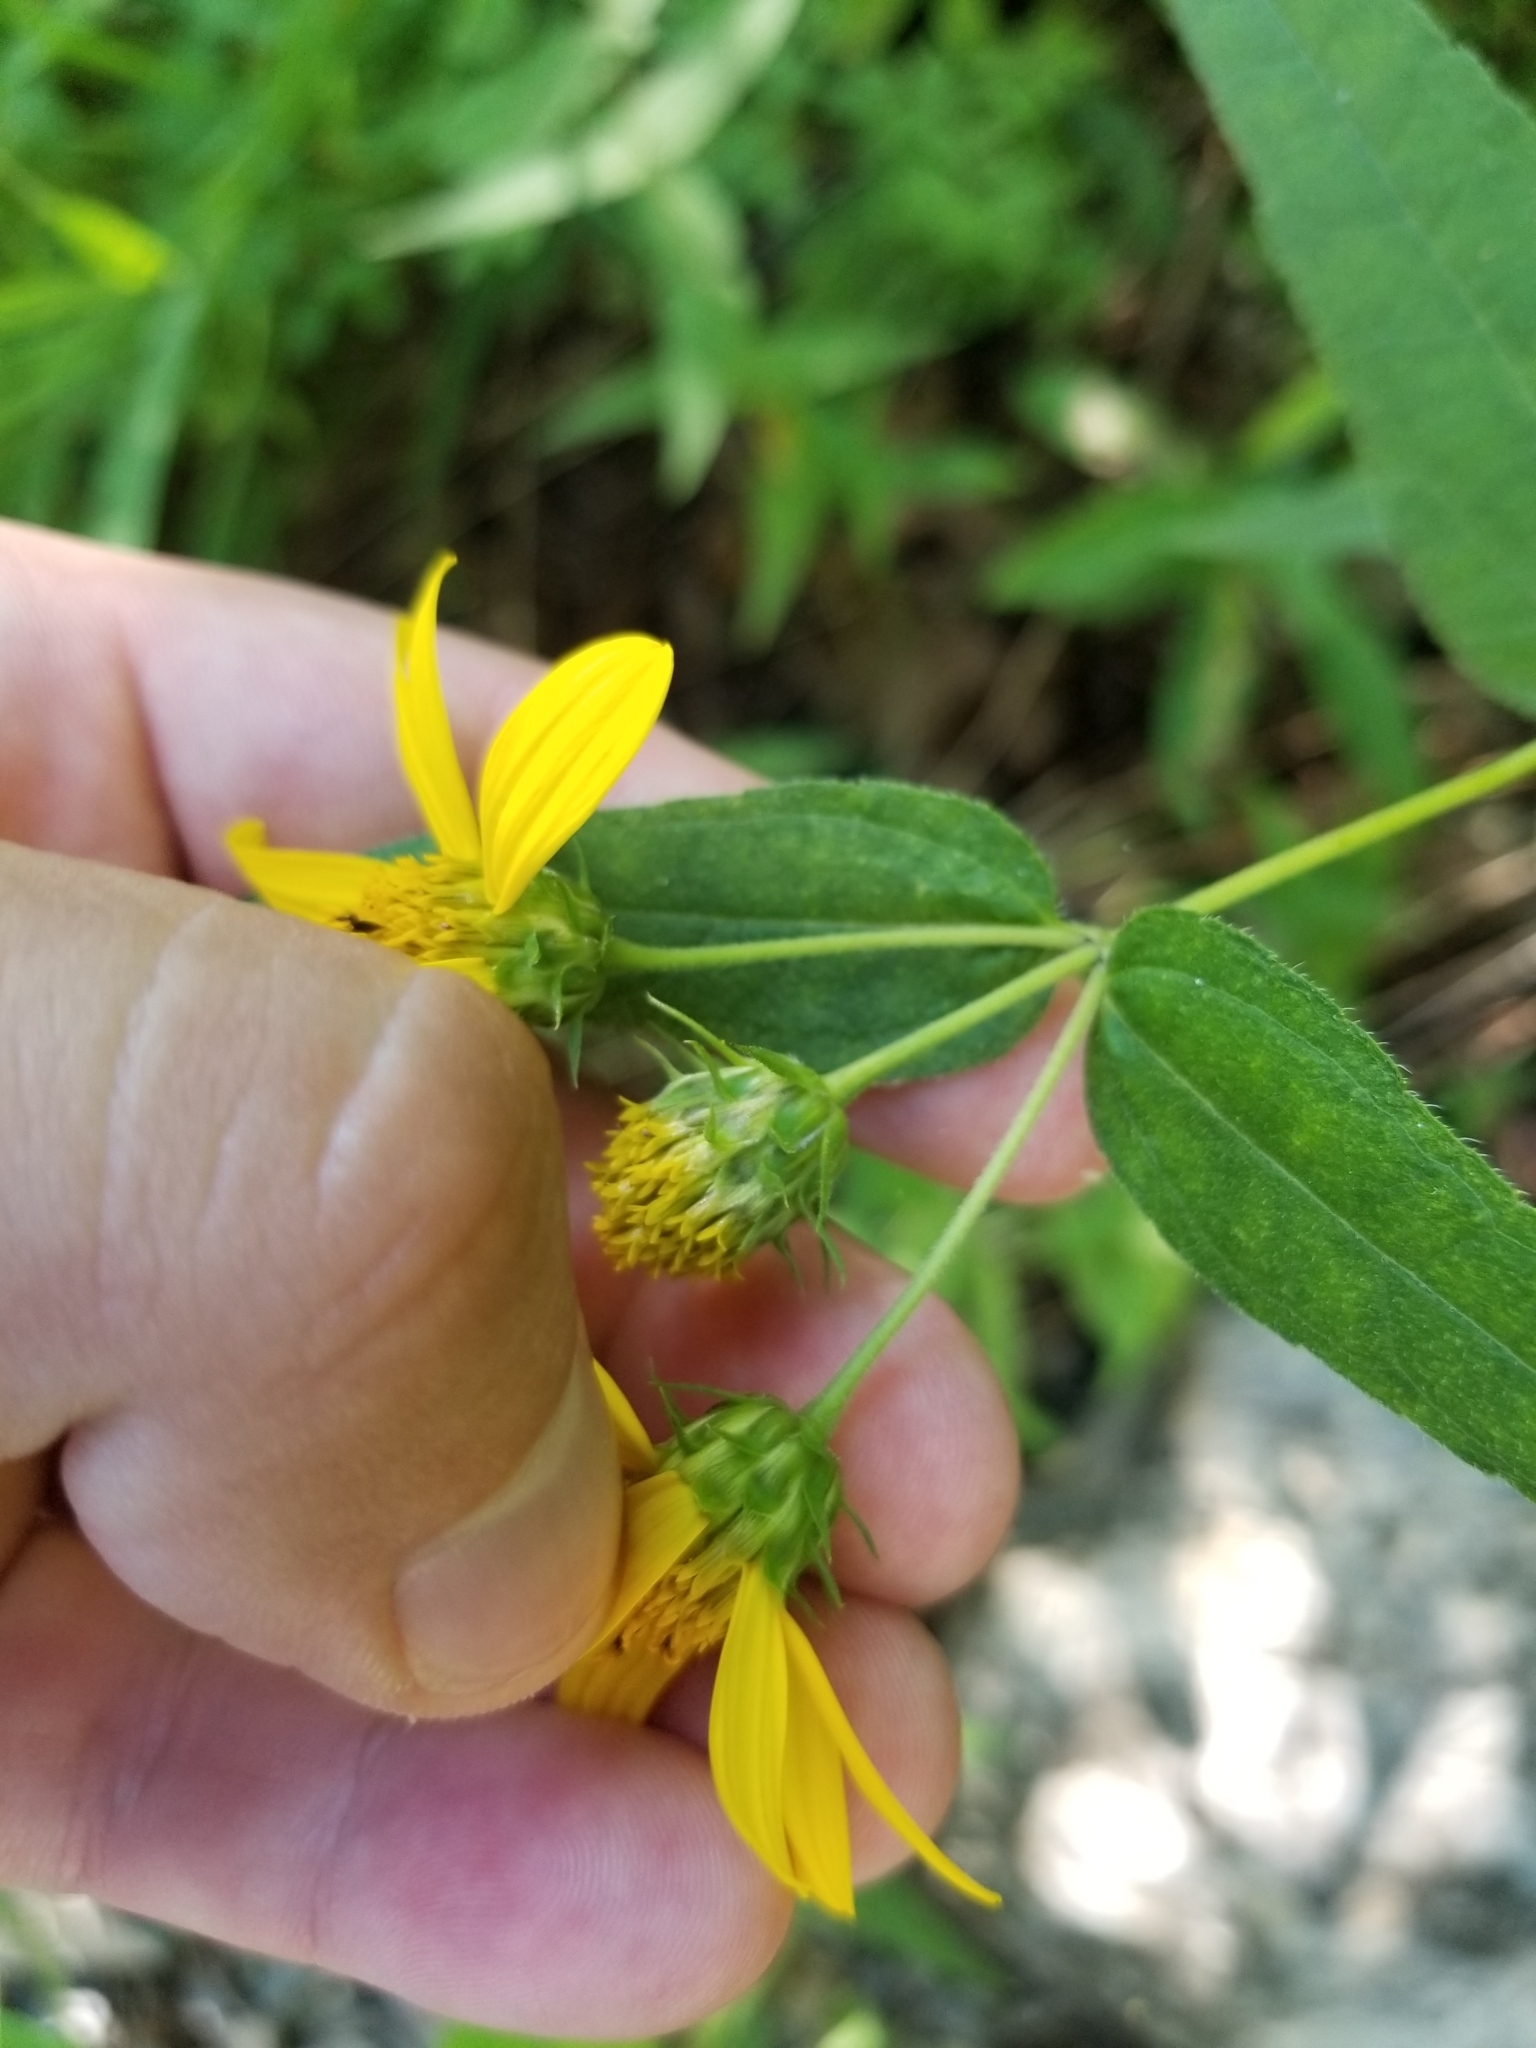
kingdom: Plantae
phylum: Tracheophyta
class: Magnoliopsida
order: Asterales
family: Asteraceae
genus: Helianthus
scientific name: Helianthus divaricatus
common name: Divergent sunflower
